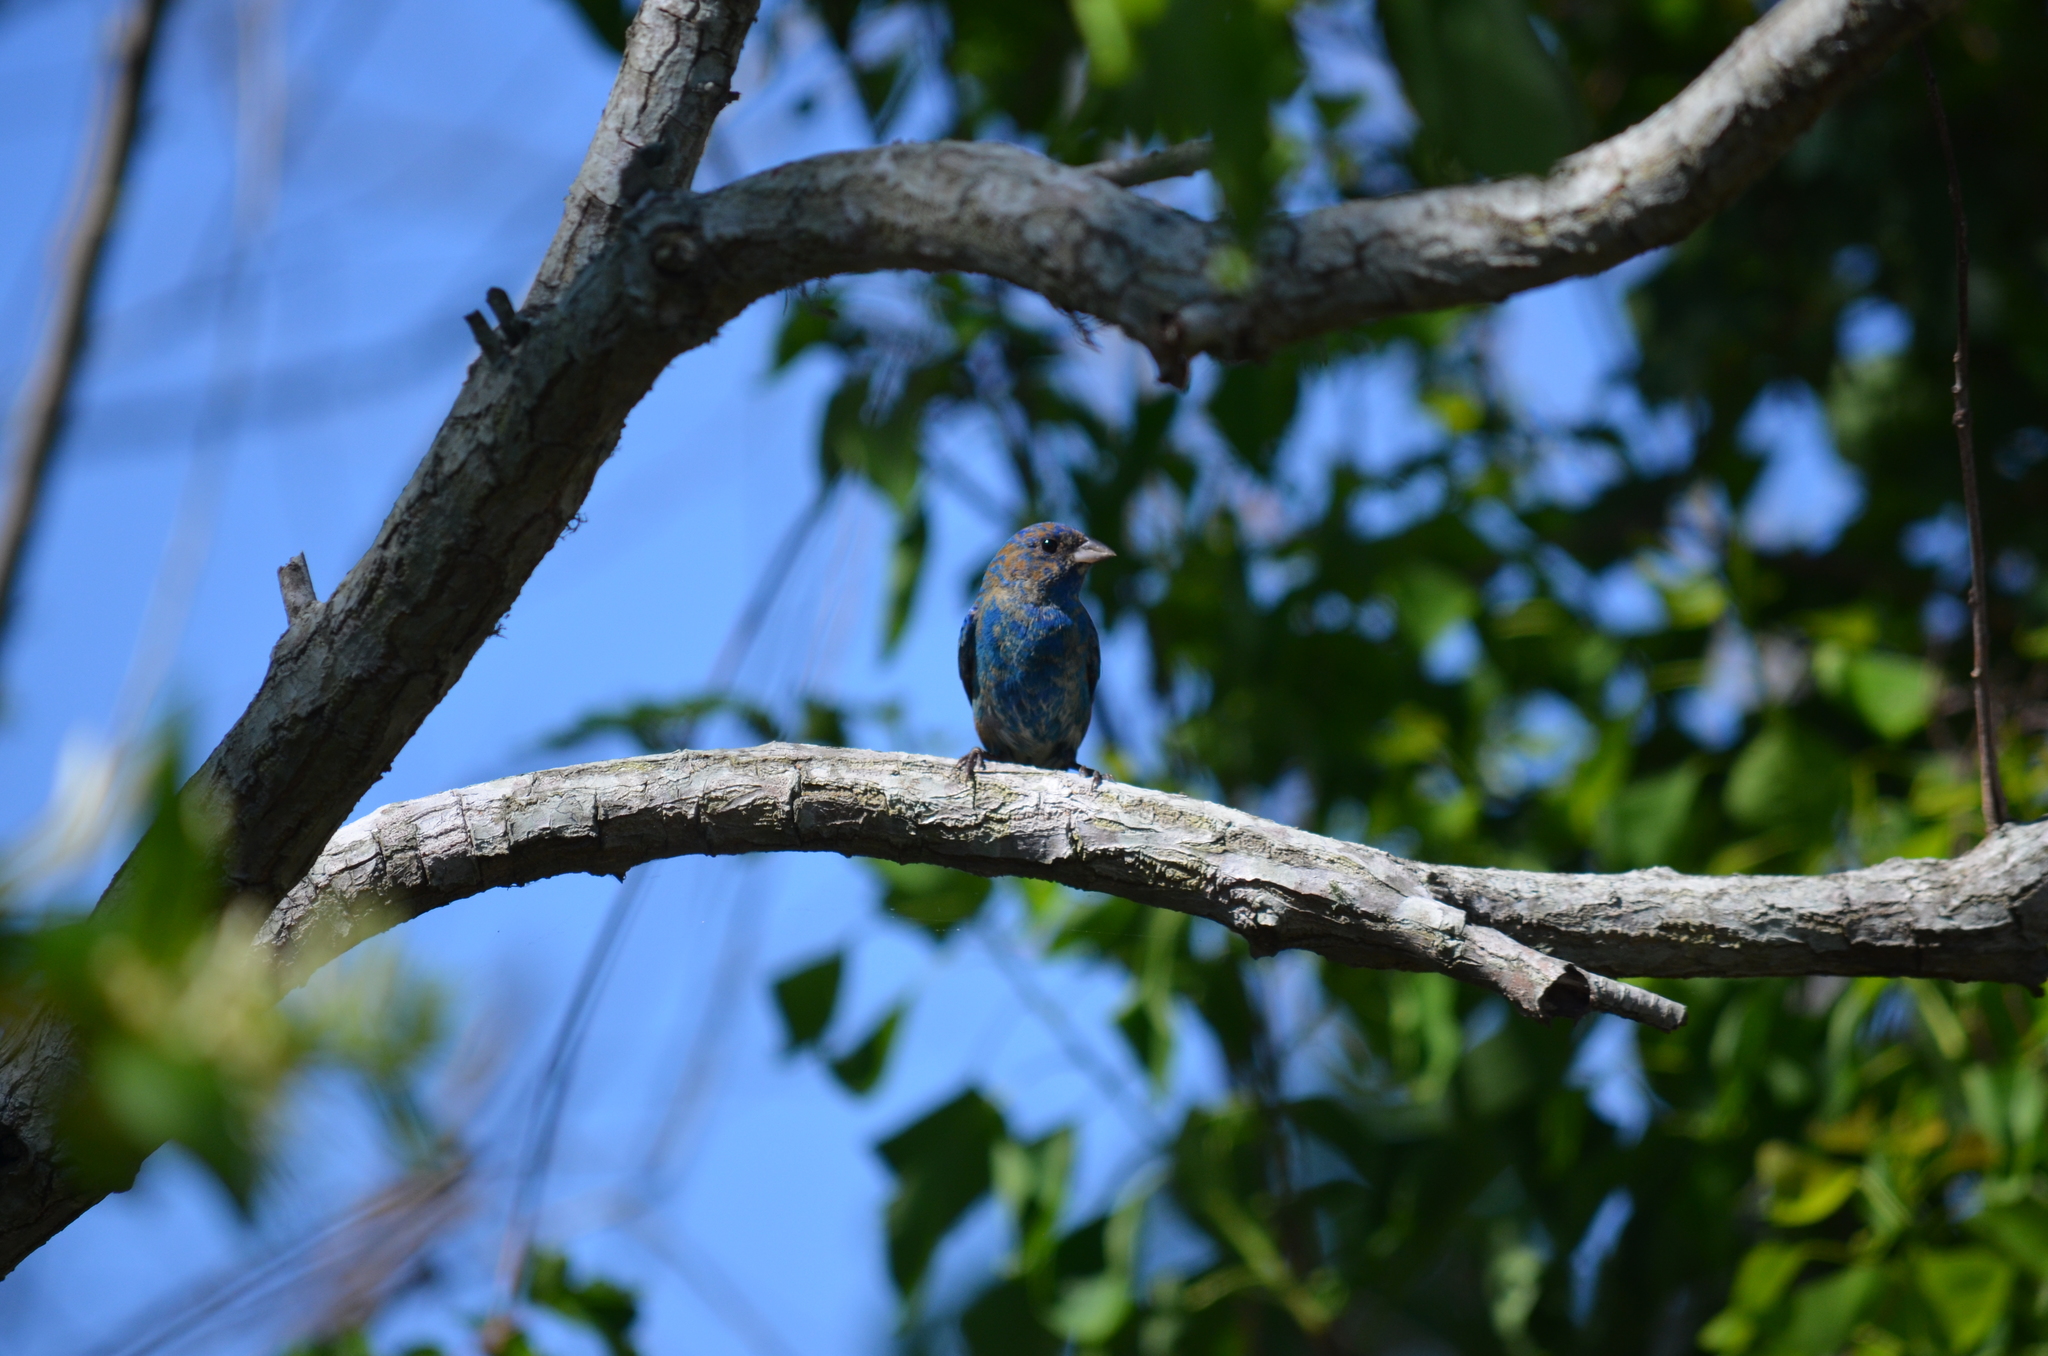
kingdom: Animalia
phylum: Chordata
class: Aves
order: Passeriformes
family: Cardinalidae
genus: Passerina
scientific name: Passerina cyanea
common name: Indigo bunting
